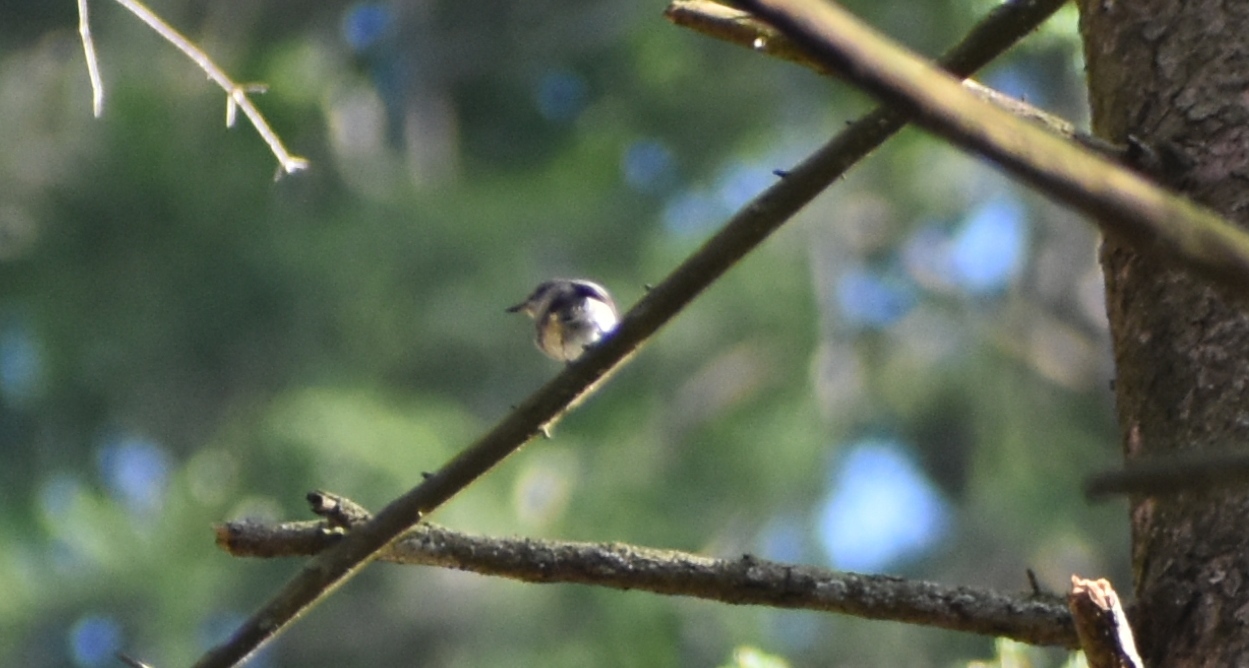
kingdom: Animalia
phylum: Chordata
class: Aves
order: Passeriformes
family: Muscicapidae
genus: Muscicapa
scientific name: Muscicapa striata
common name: Spotted flycatcher
